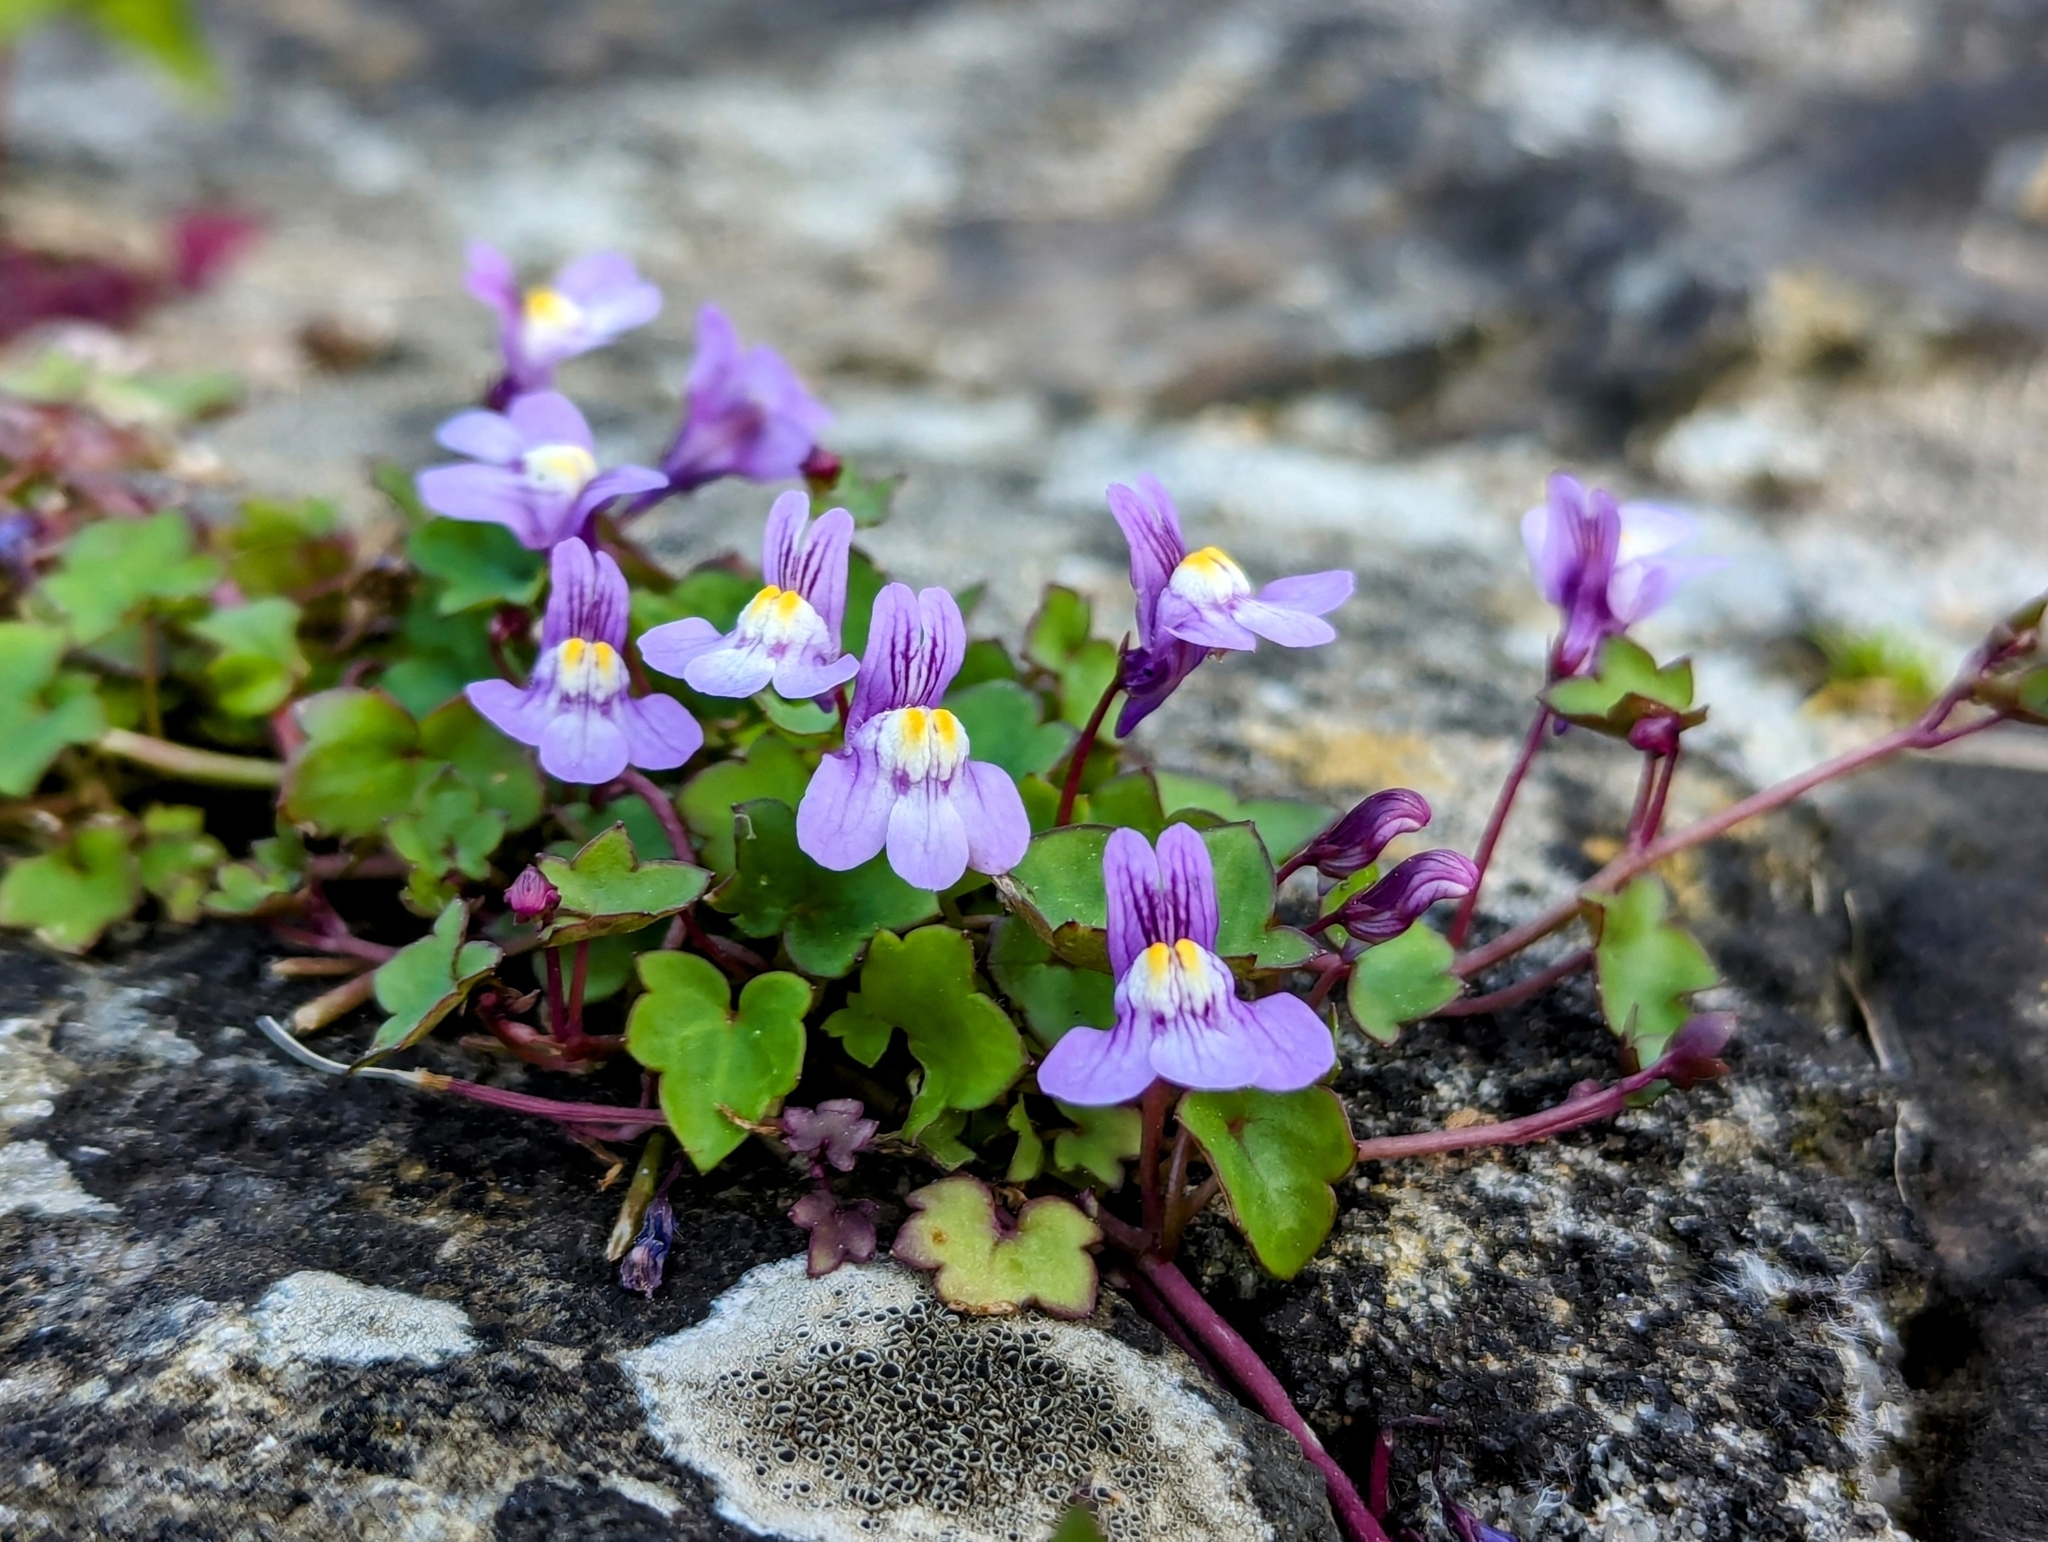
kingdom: Plantae
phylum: Tracheophyta
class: Magnoliopsida
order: Lamiales
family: Plantaginaceae
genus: Cymbalaria
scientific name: Cymbalaria muralis
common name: Ivy-leaved toadflax
